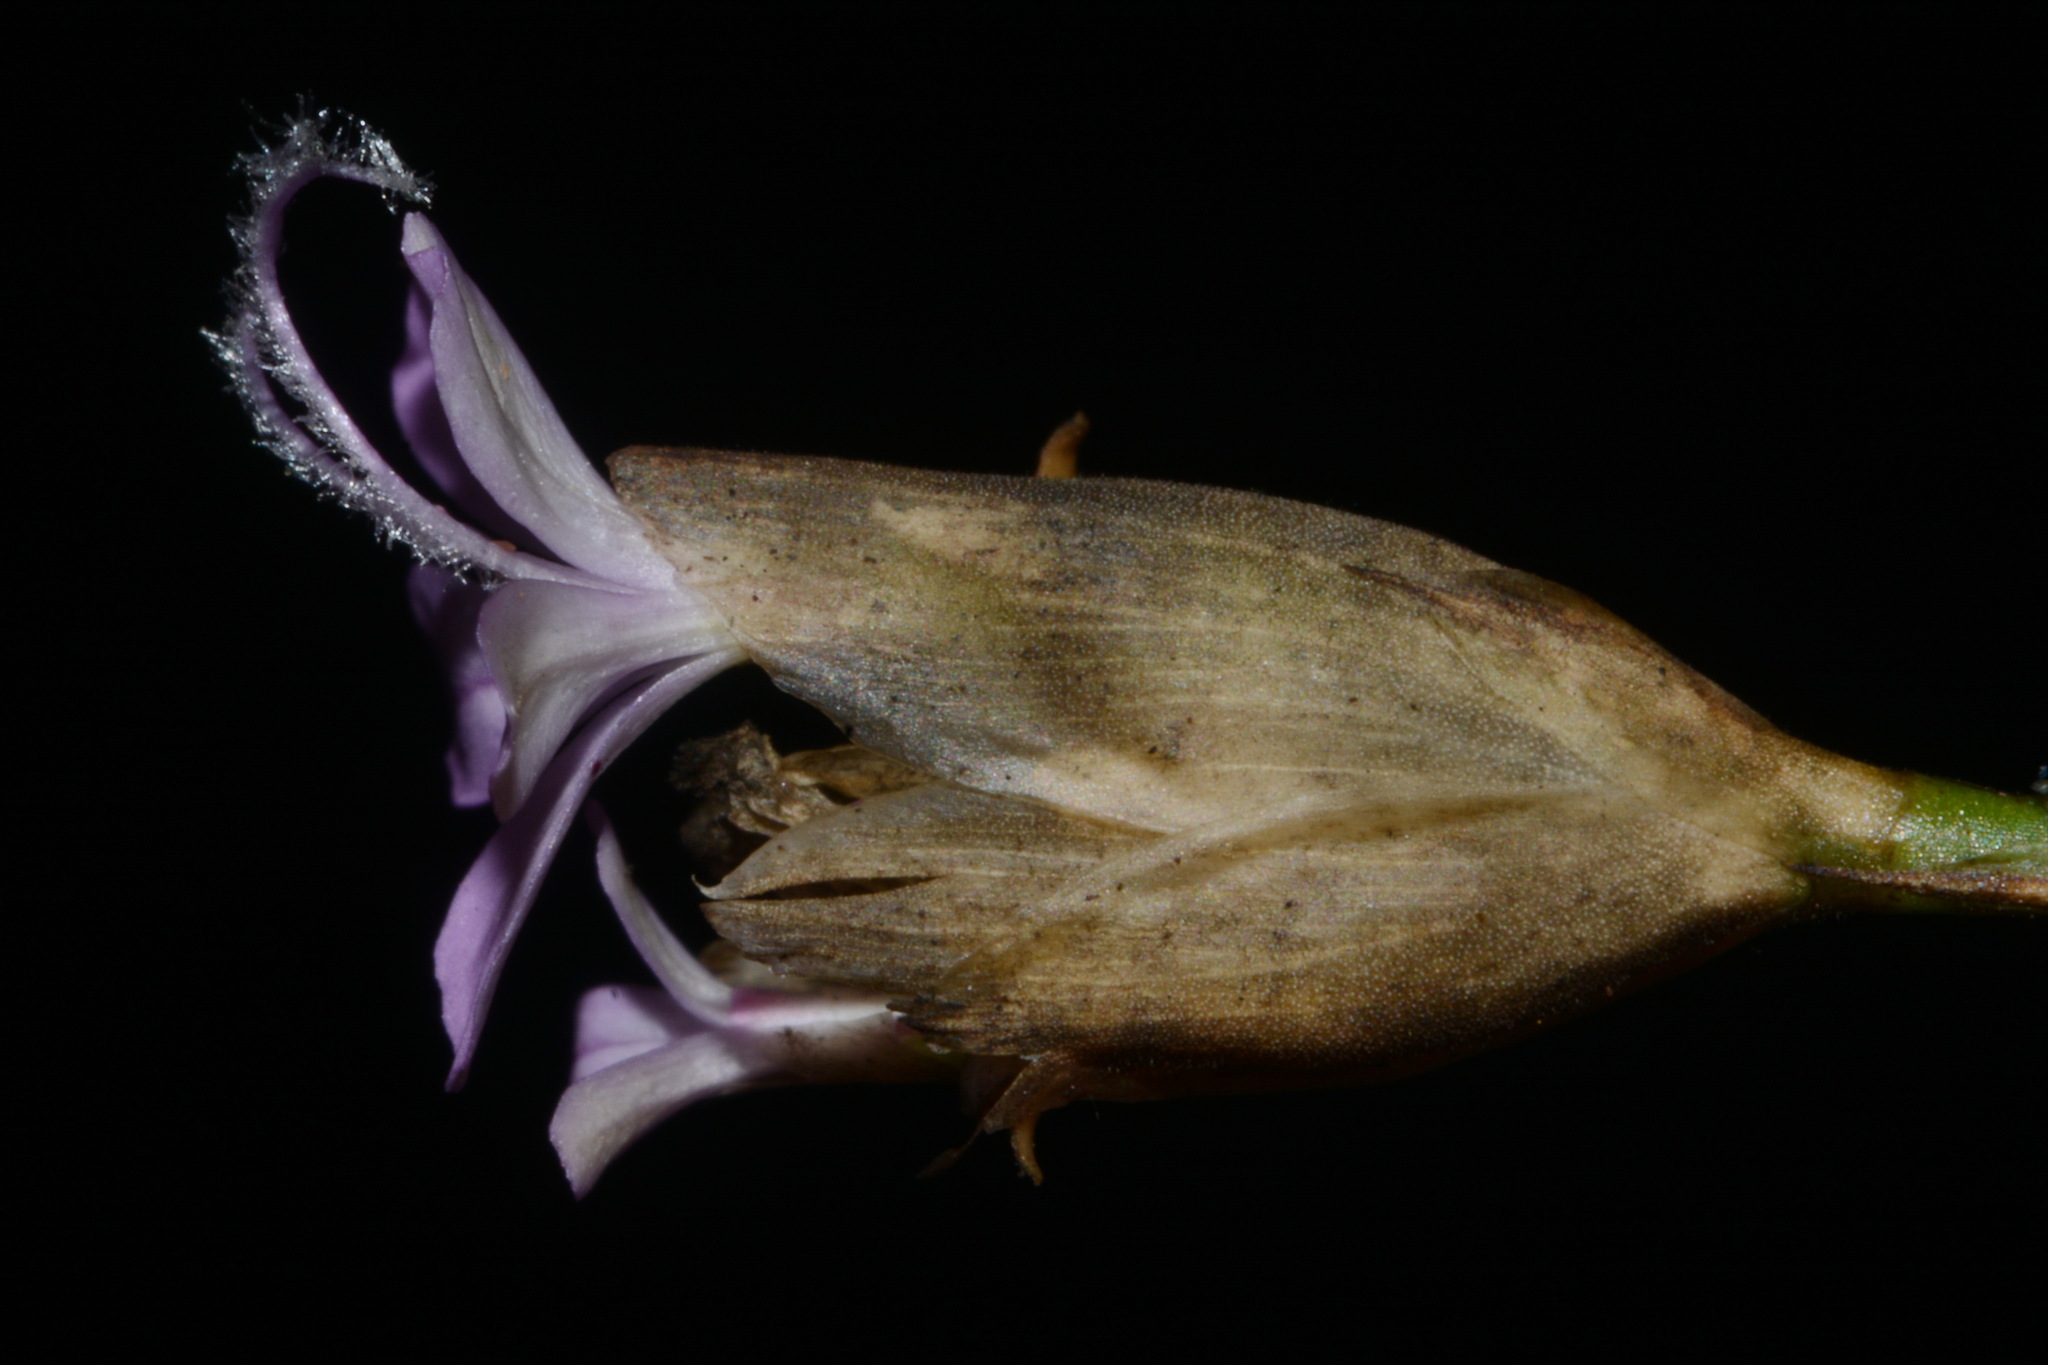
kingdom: Plantae
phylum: Tracheophyta
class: Magnoliopsida
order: Caryophyllales
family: Caryophyllaceae
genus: Petrorhagia
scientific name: Petrorhagia prolifera
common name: Proliferous pink
